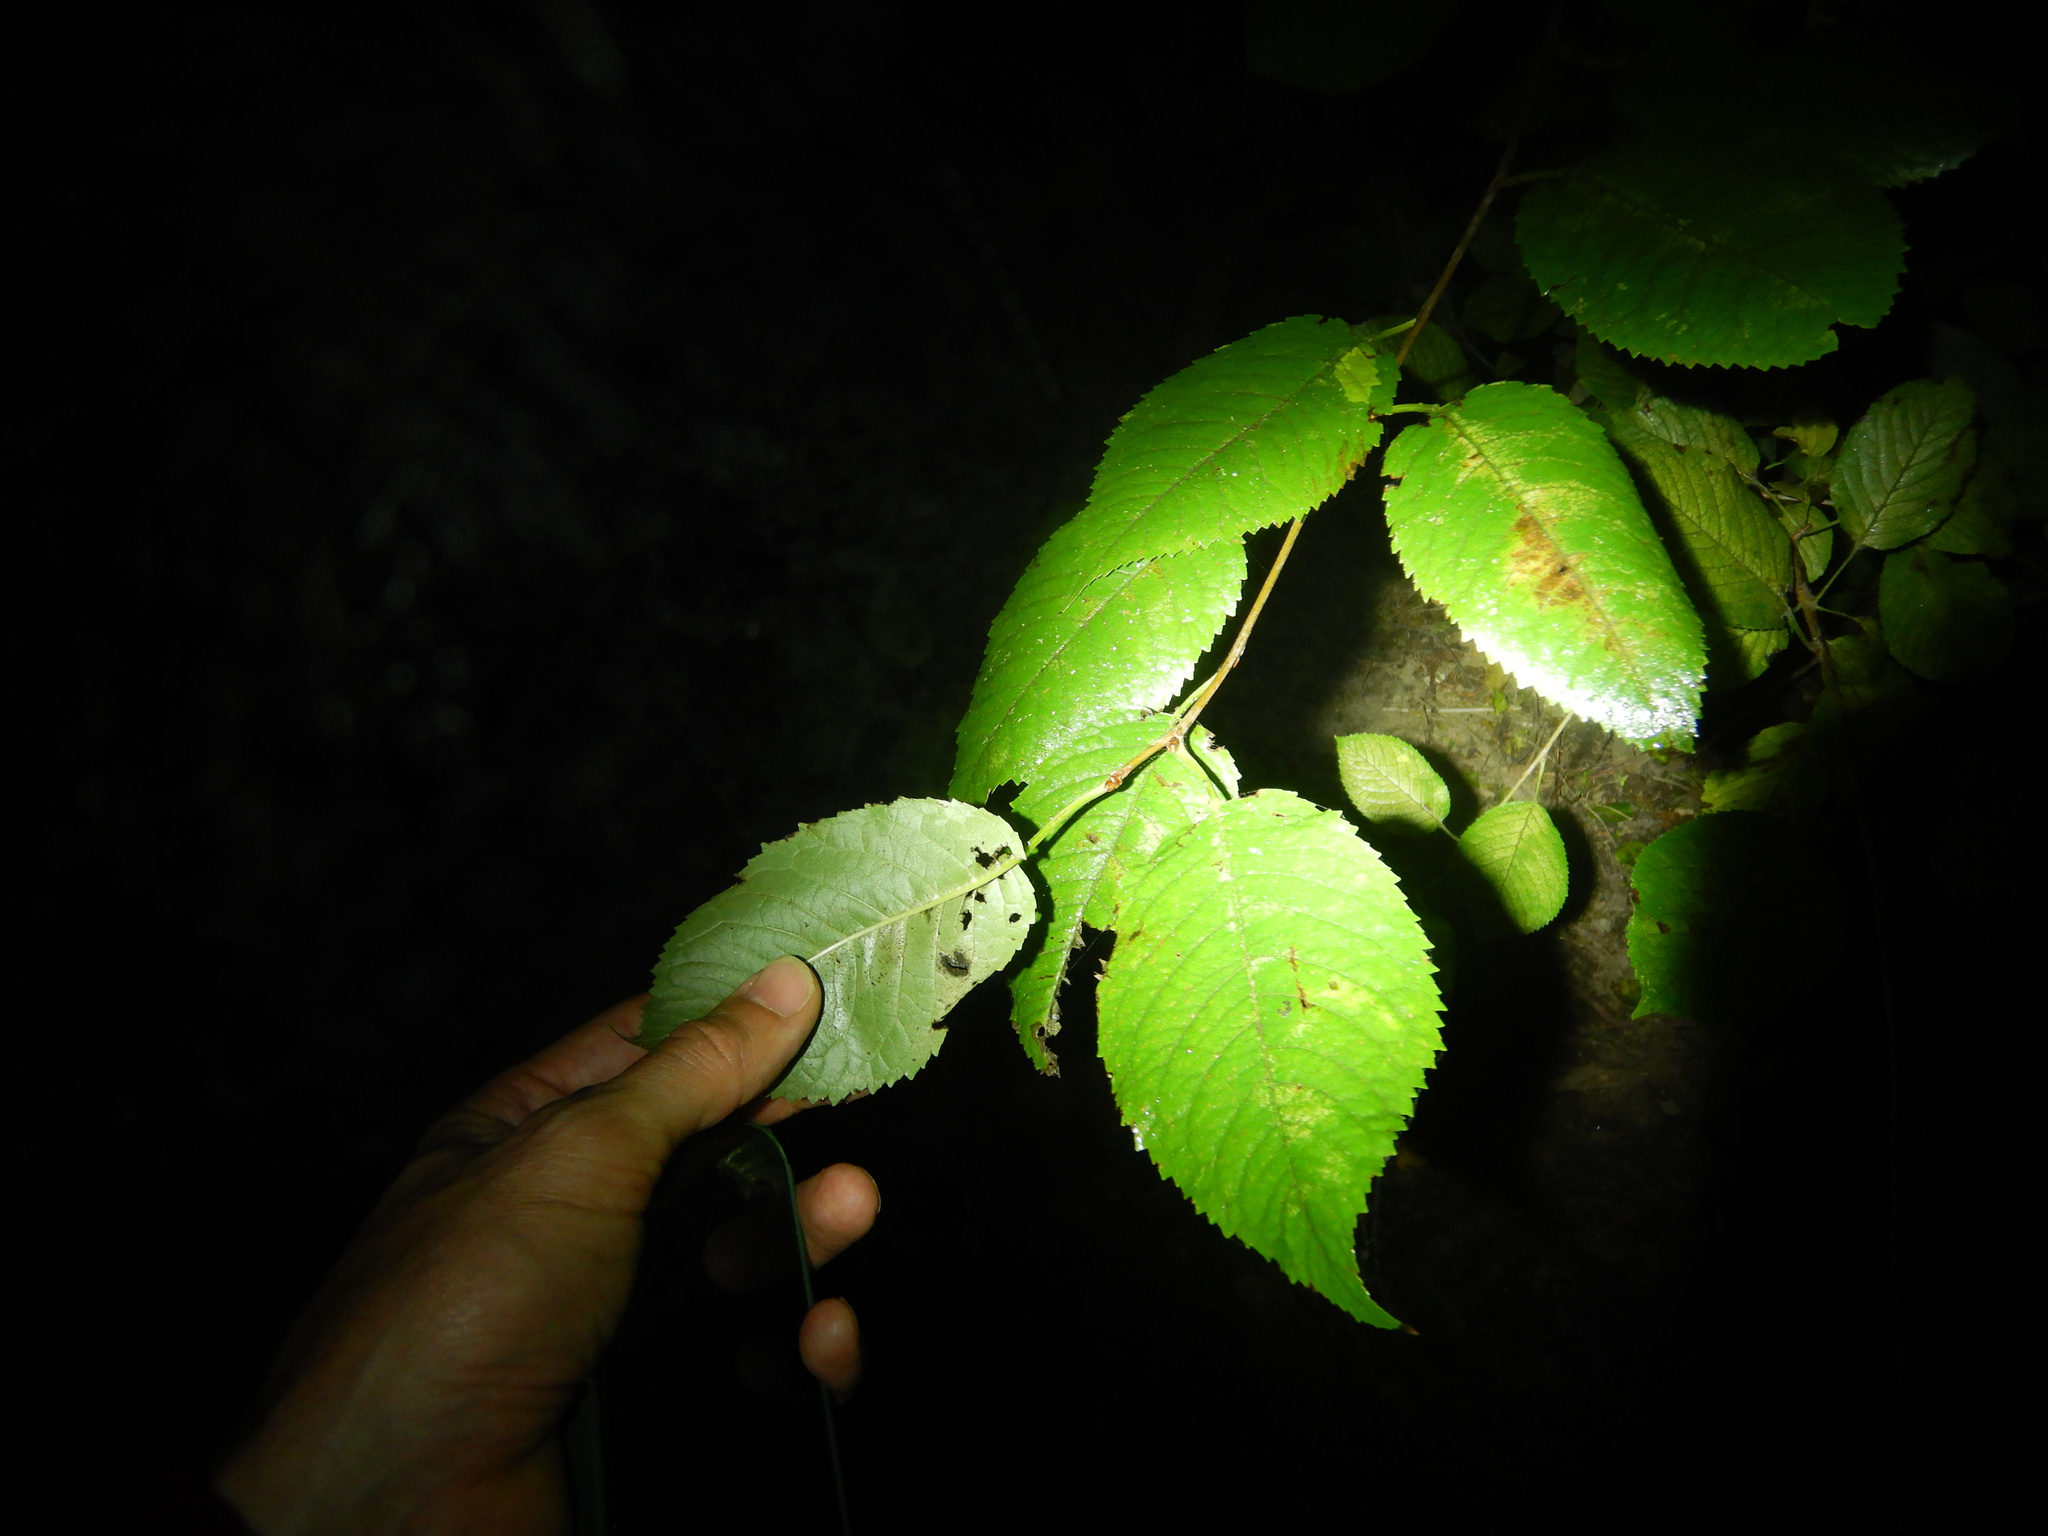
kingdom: Plantae
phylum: Tracheophyta
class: Magnoliopsida
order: Rosales
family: Rosaceae
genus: Prunus
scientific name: Prunus serrulata
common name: Japanese cherry
